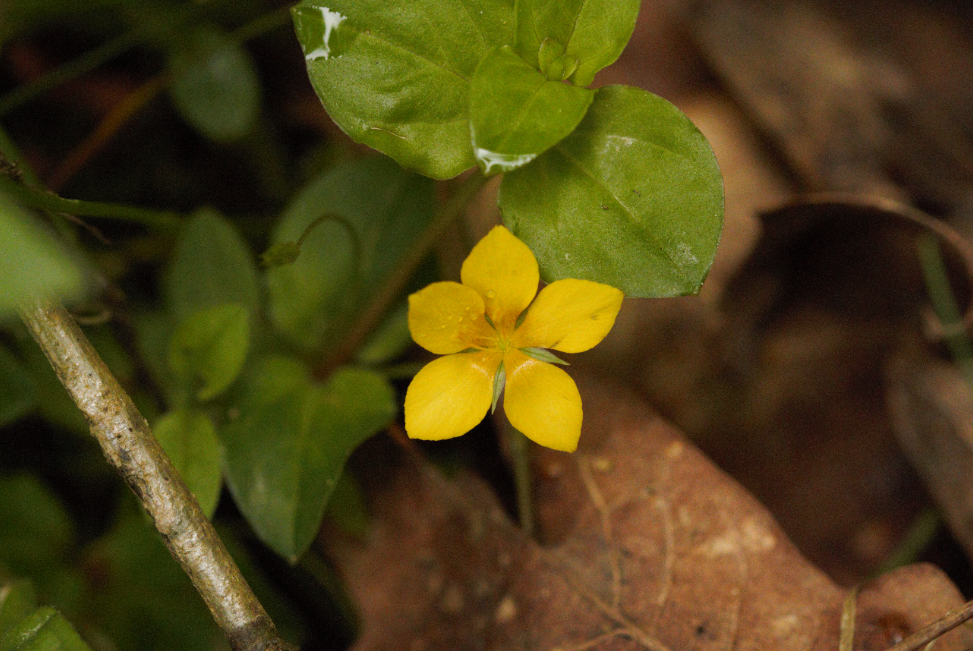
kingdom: Plantae
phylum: Tracheophyta
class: Magnoliopsida
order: Ericales
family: Primulaceae
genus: Lysimachia
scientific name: Lysimachia nemorum
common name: Yellow pimpernel
